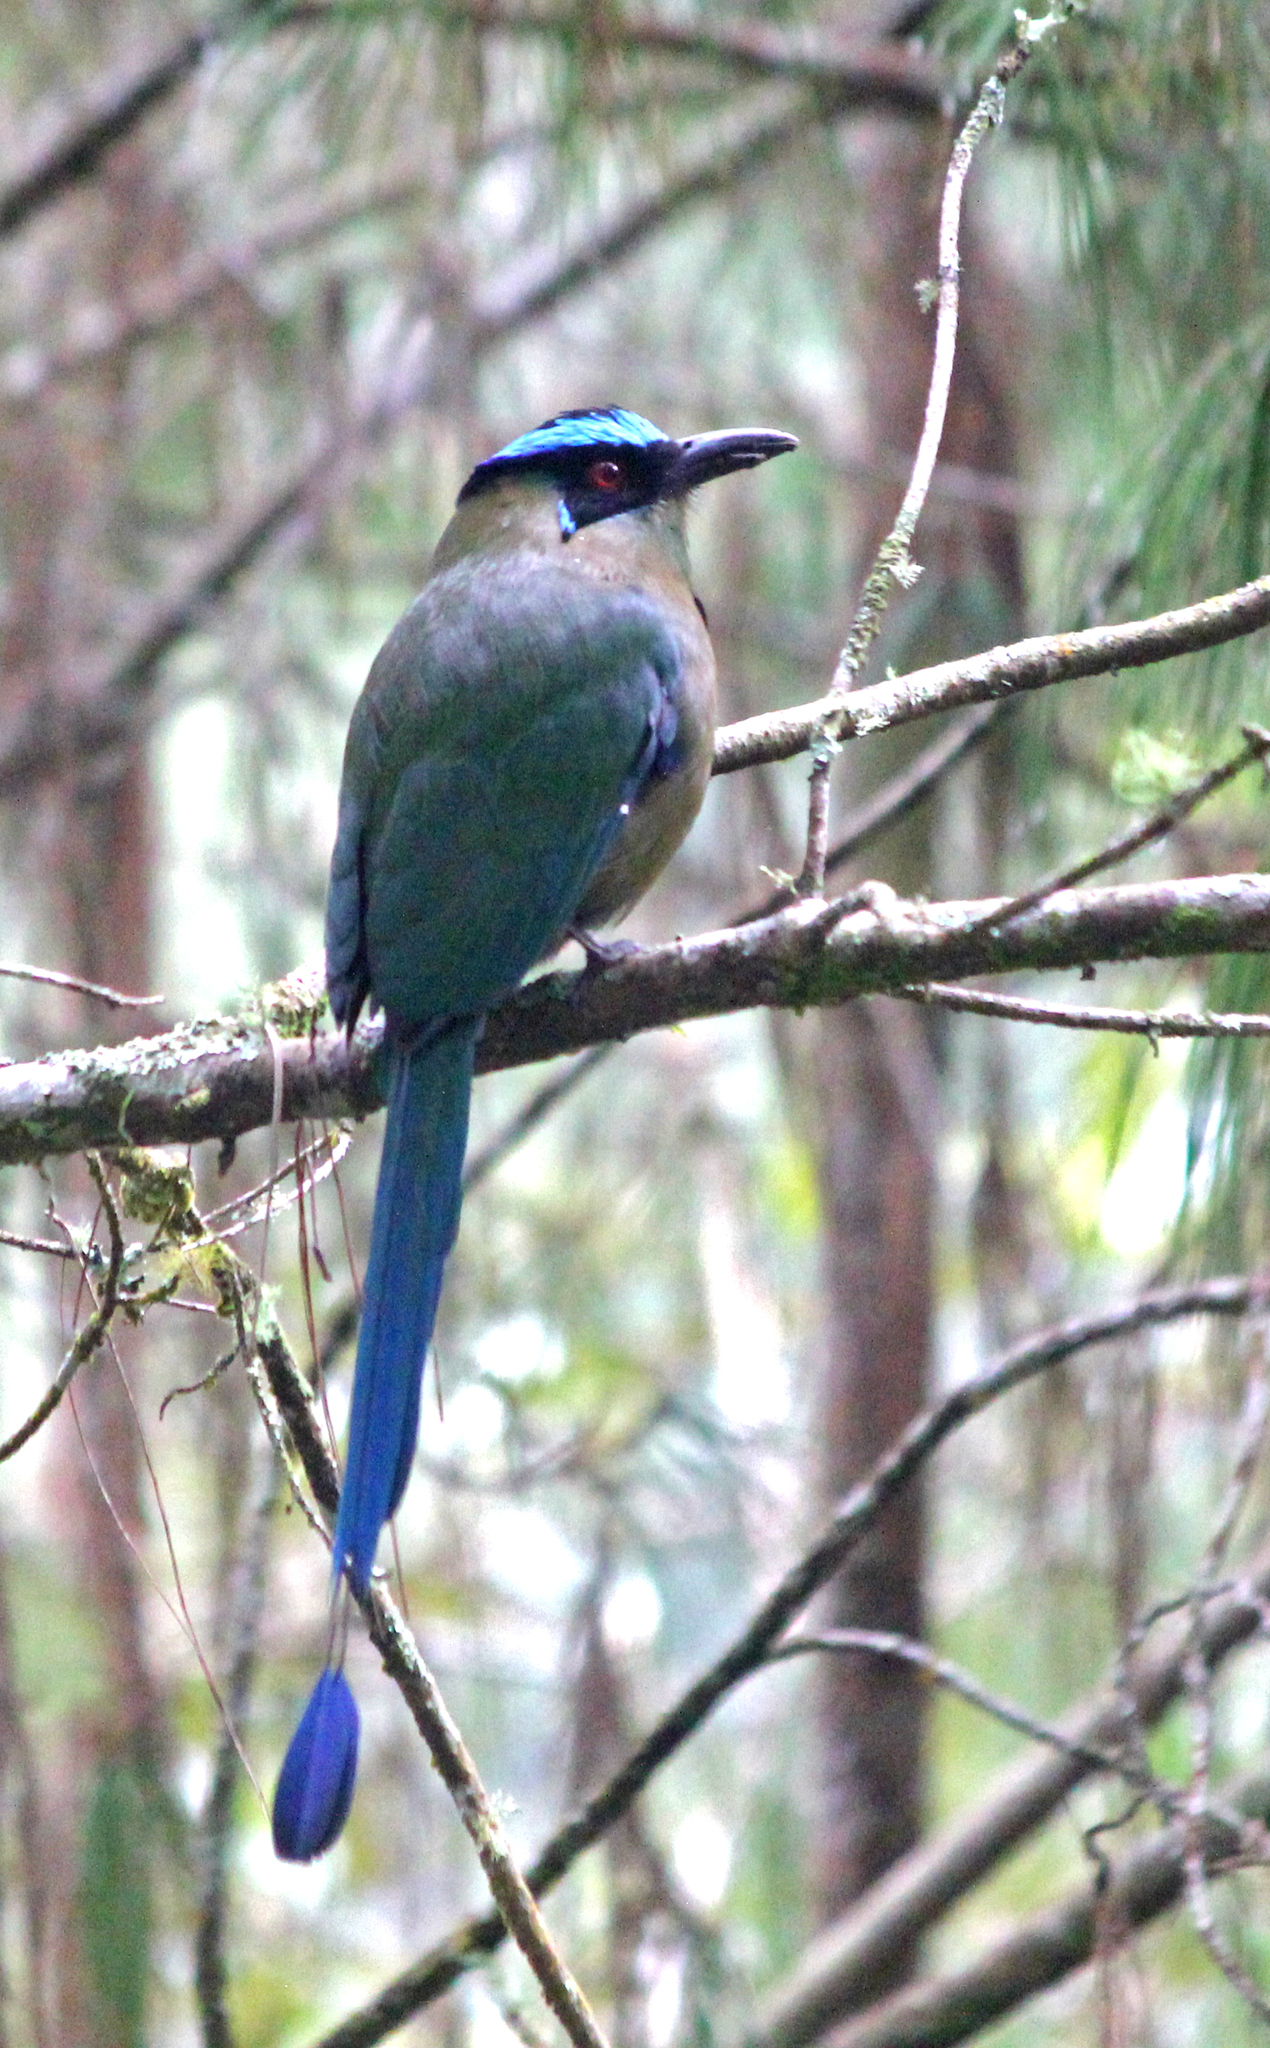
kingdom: Animalia
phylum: Chordata
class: Aves
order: Coraciiformes
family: Momotidae
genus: Momotus
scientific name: Momotus aequatorialis
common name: Andean motmot
